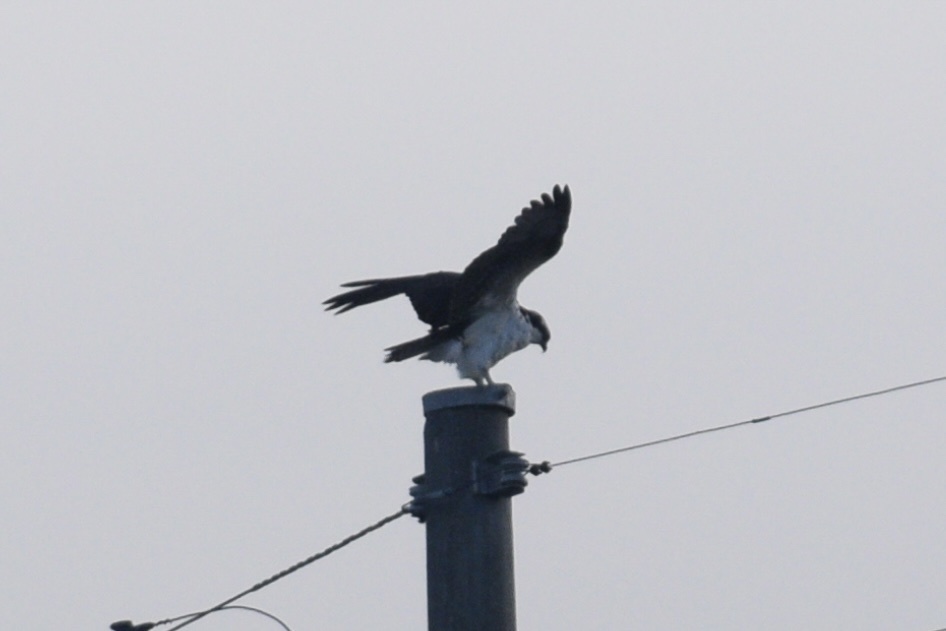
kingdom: Animalia
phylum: Chordata
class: Aves
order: Accipitriformes
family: Pandionidae
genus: Pandion
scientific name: Pandion haliaetus
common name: Osprey
